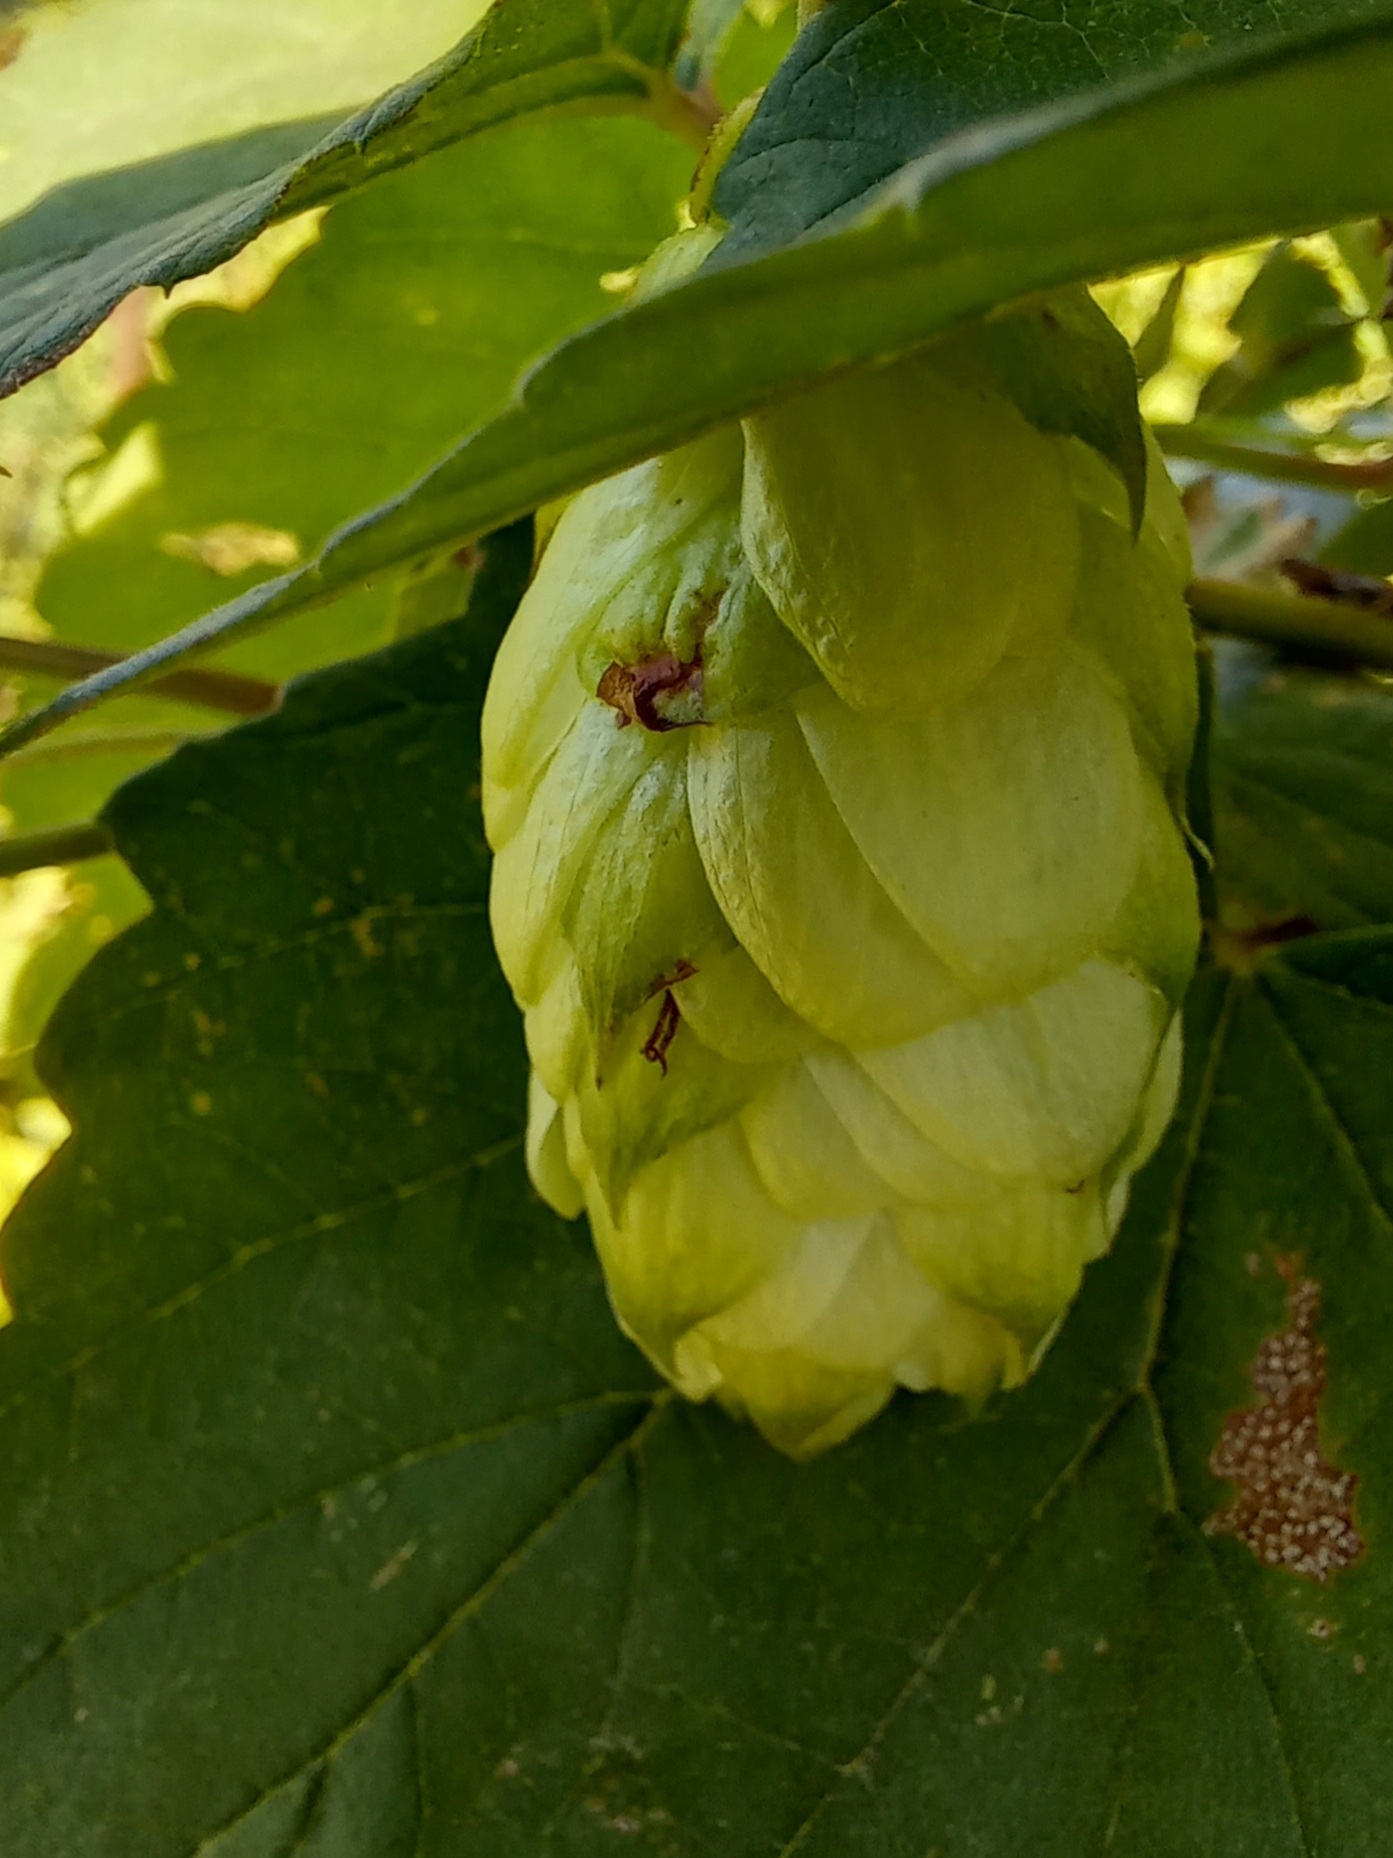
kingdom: Plantae
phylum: Tracheophyta
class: Magnoliopsida
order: Rosales
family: Cannabaceae
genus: Humulus
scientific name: Humulus lupulus
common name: Hop
